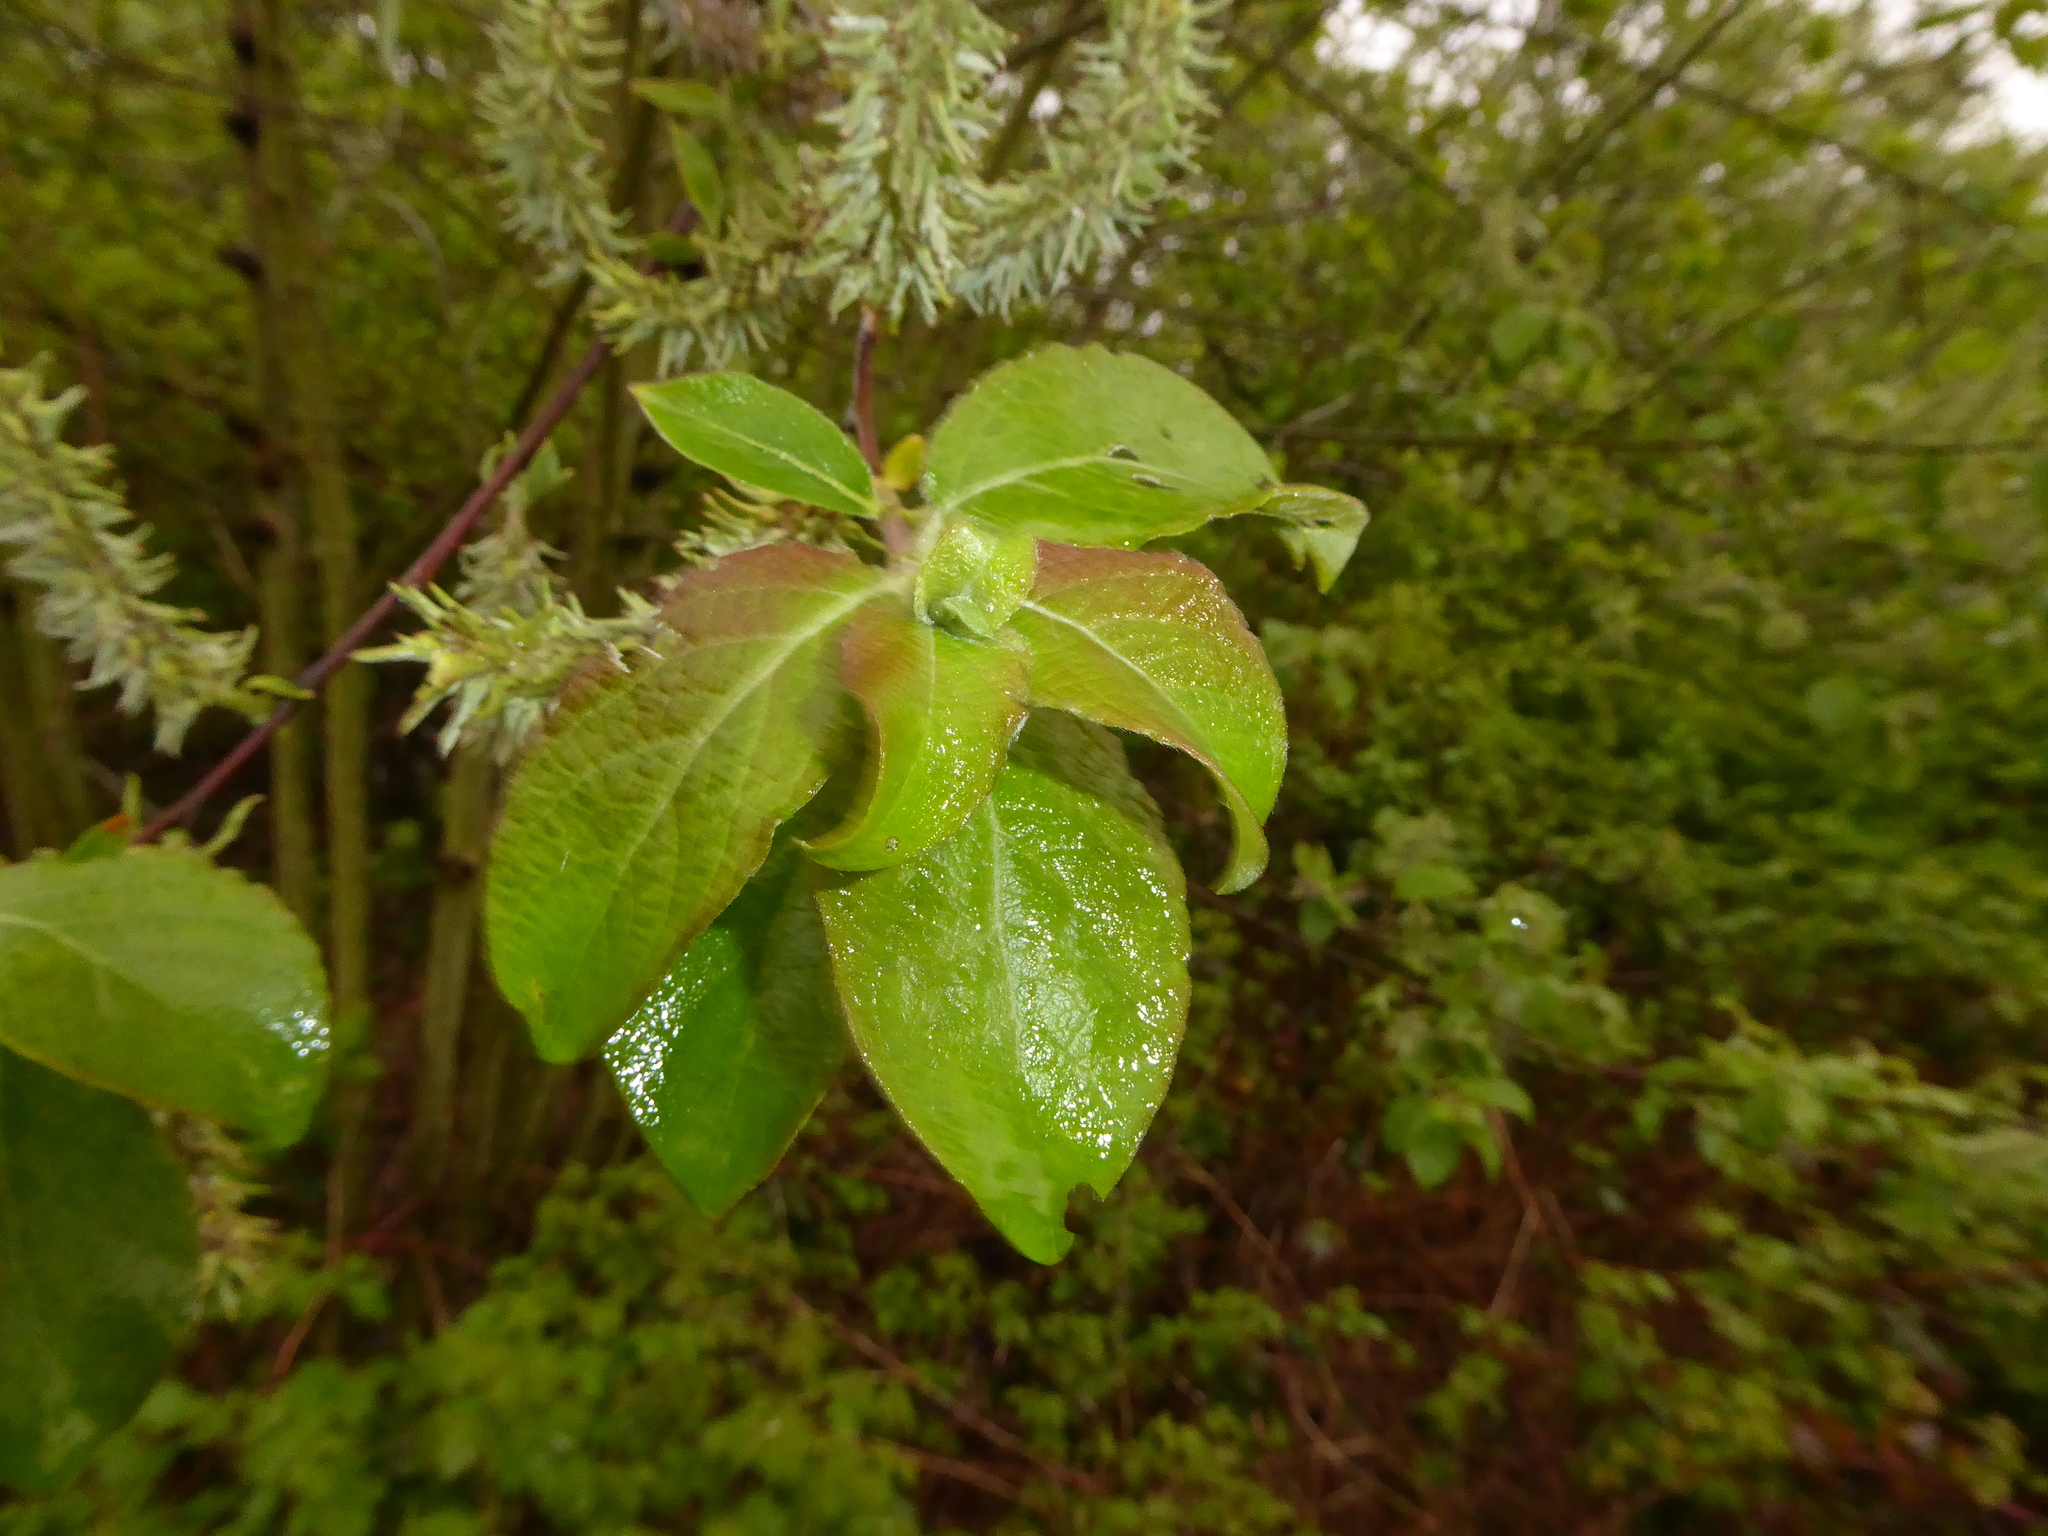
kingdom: Plantae
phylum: Tracheophyta
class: Magnoliopsida
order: Malpighiales
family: Salicaceae
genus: Salix
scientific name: Salix caprea
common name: Goat willow
